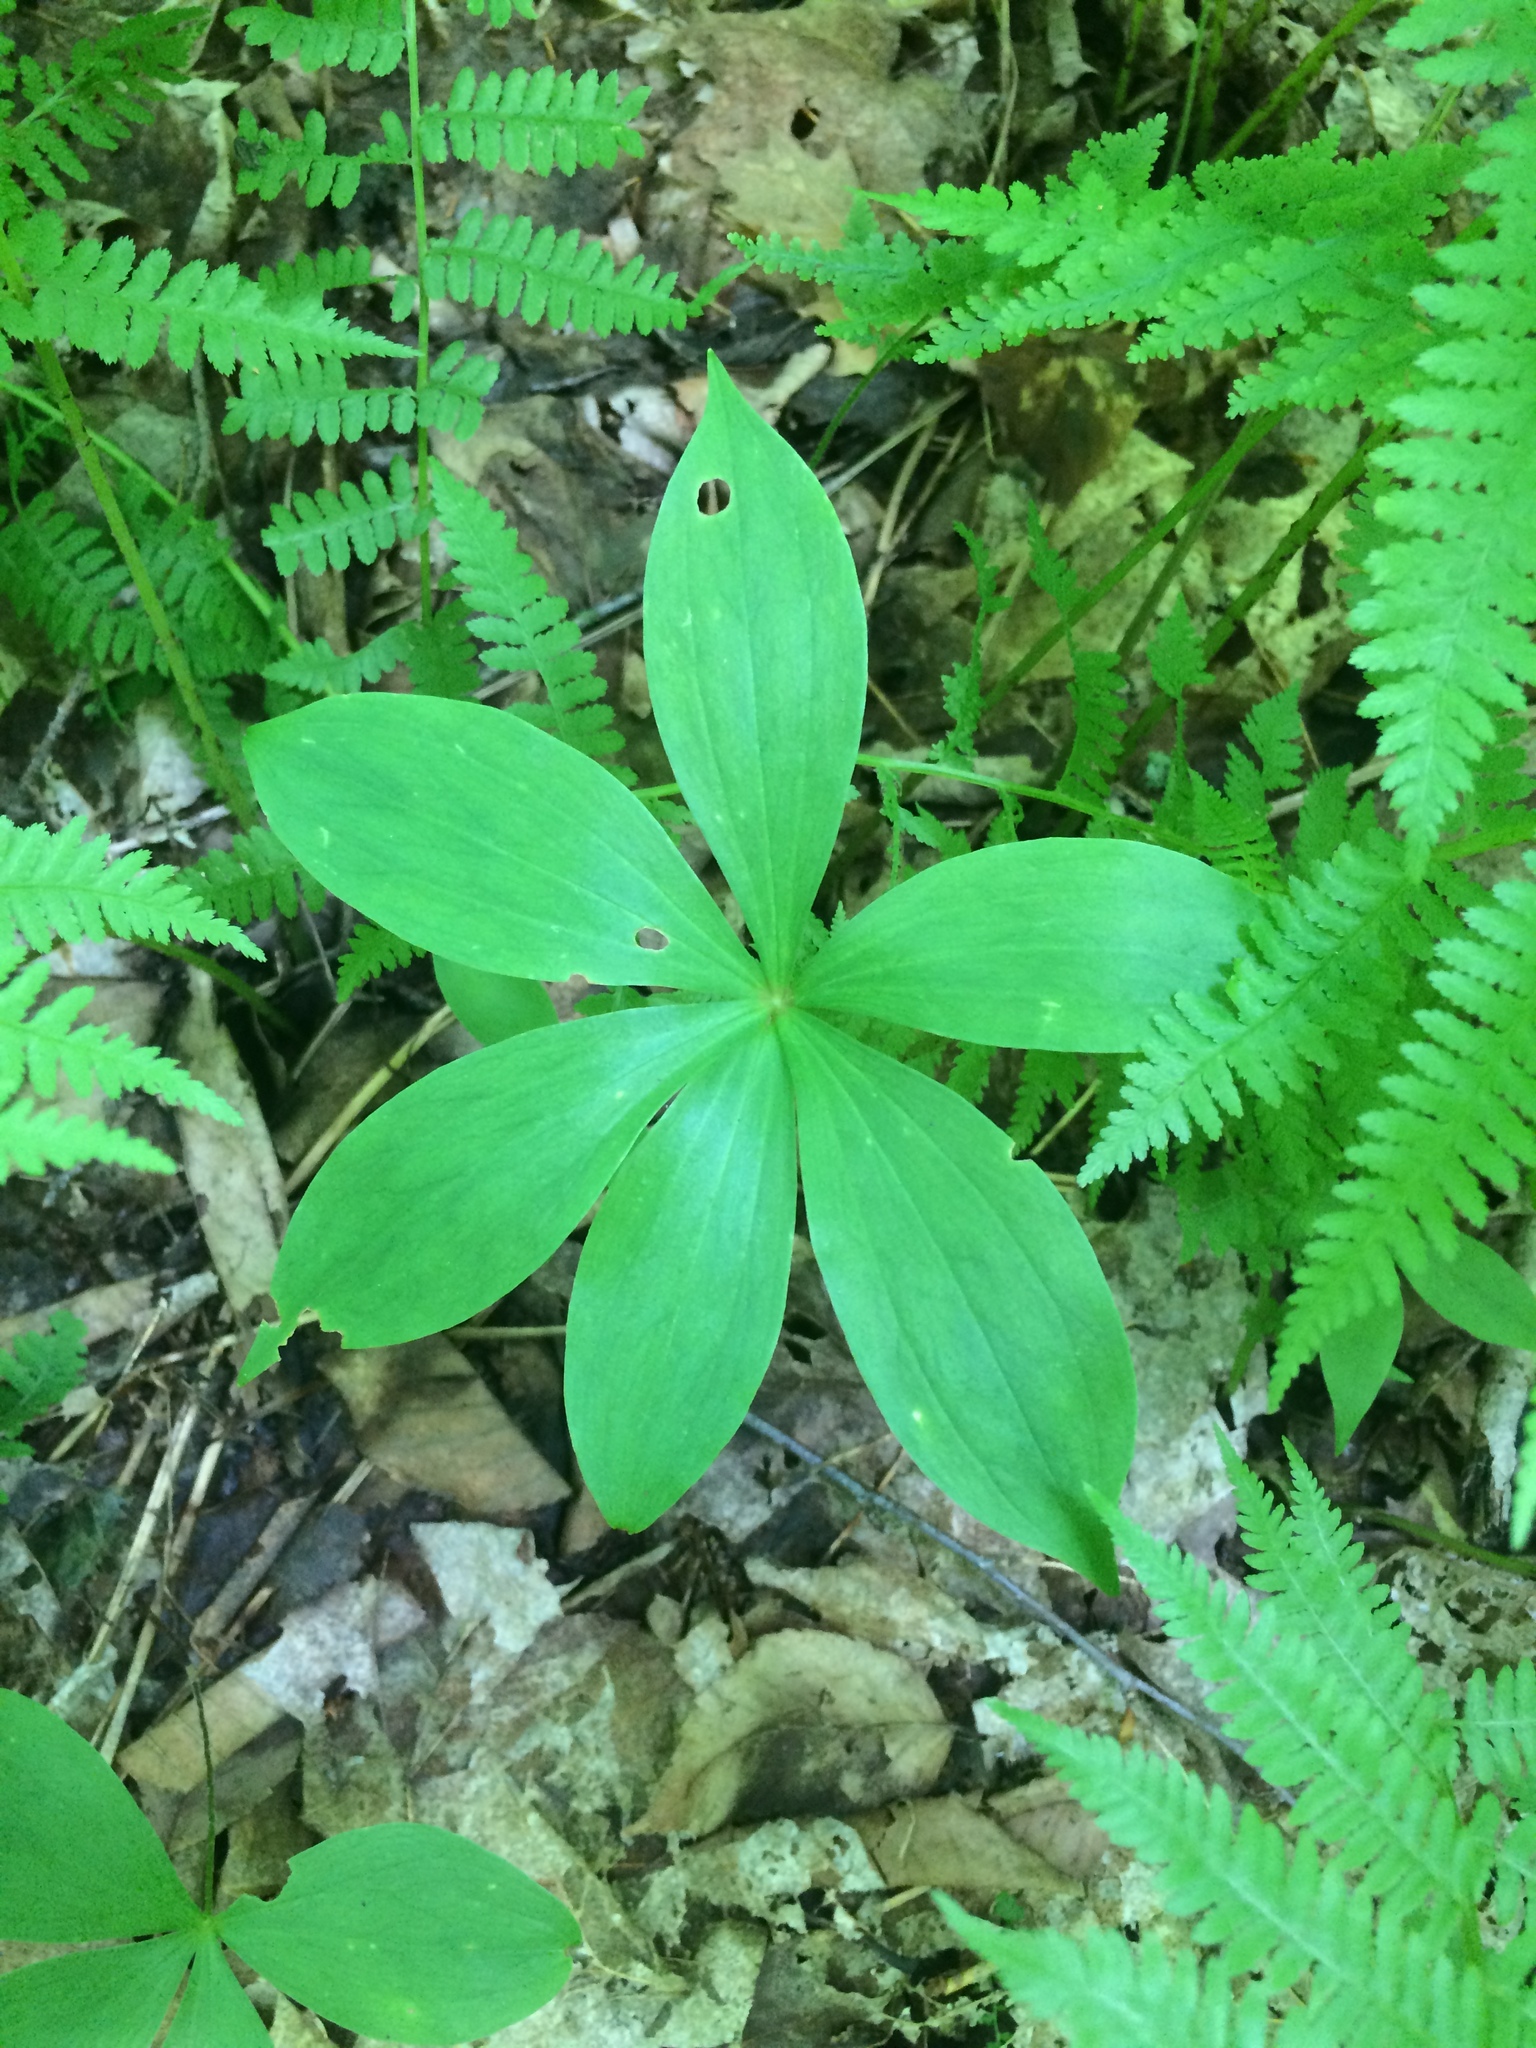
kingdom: Plantae
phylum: Tracheophyta
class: Liliopsida
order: Liliales
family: Liliaceae
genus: Medeola
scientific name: Medeola virginiana
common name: Indian cucumber-root
